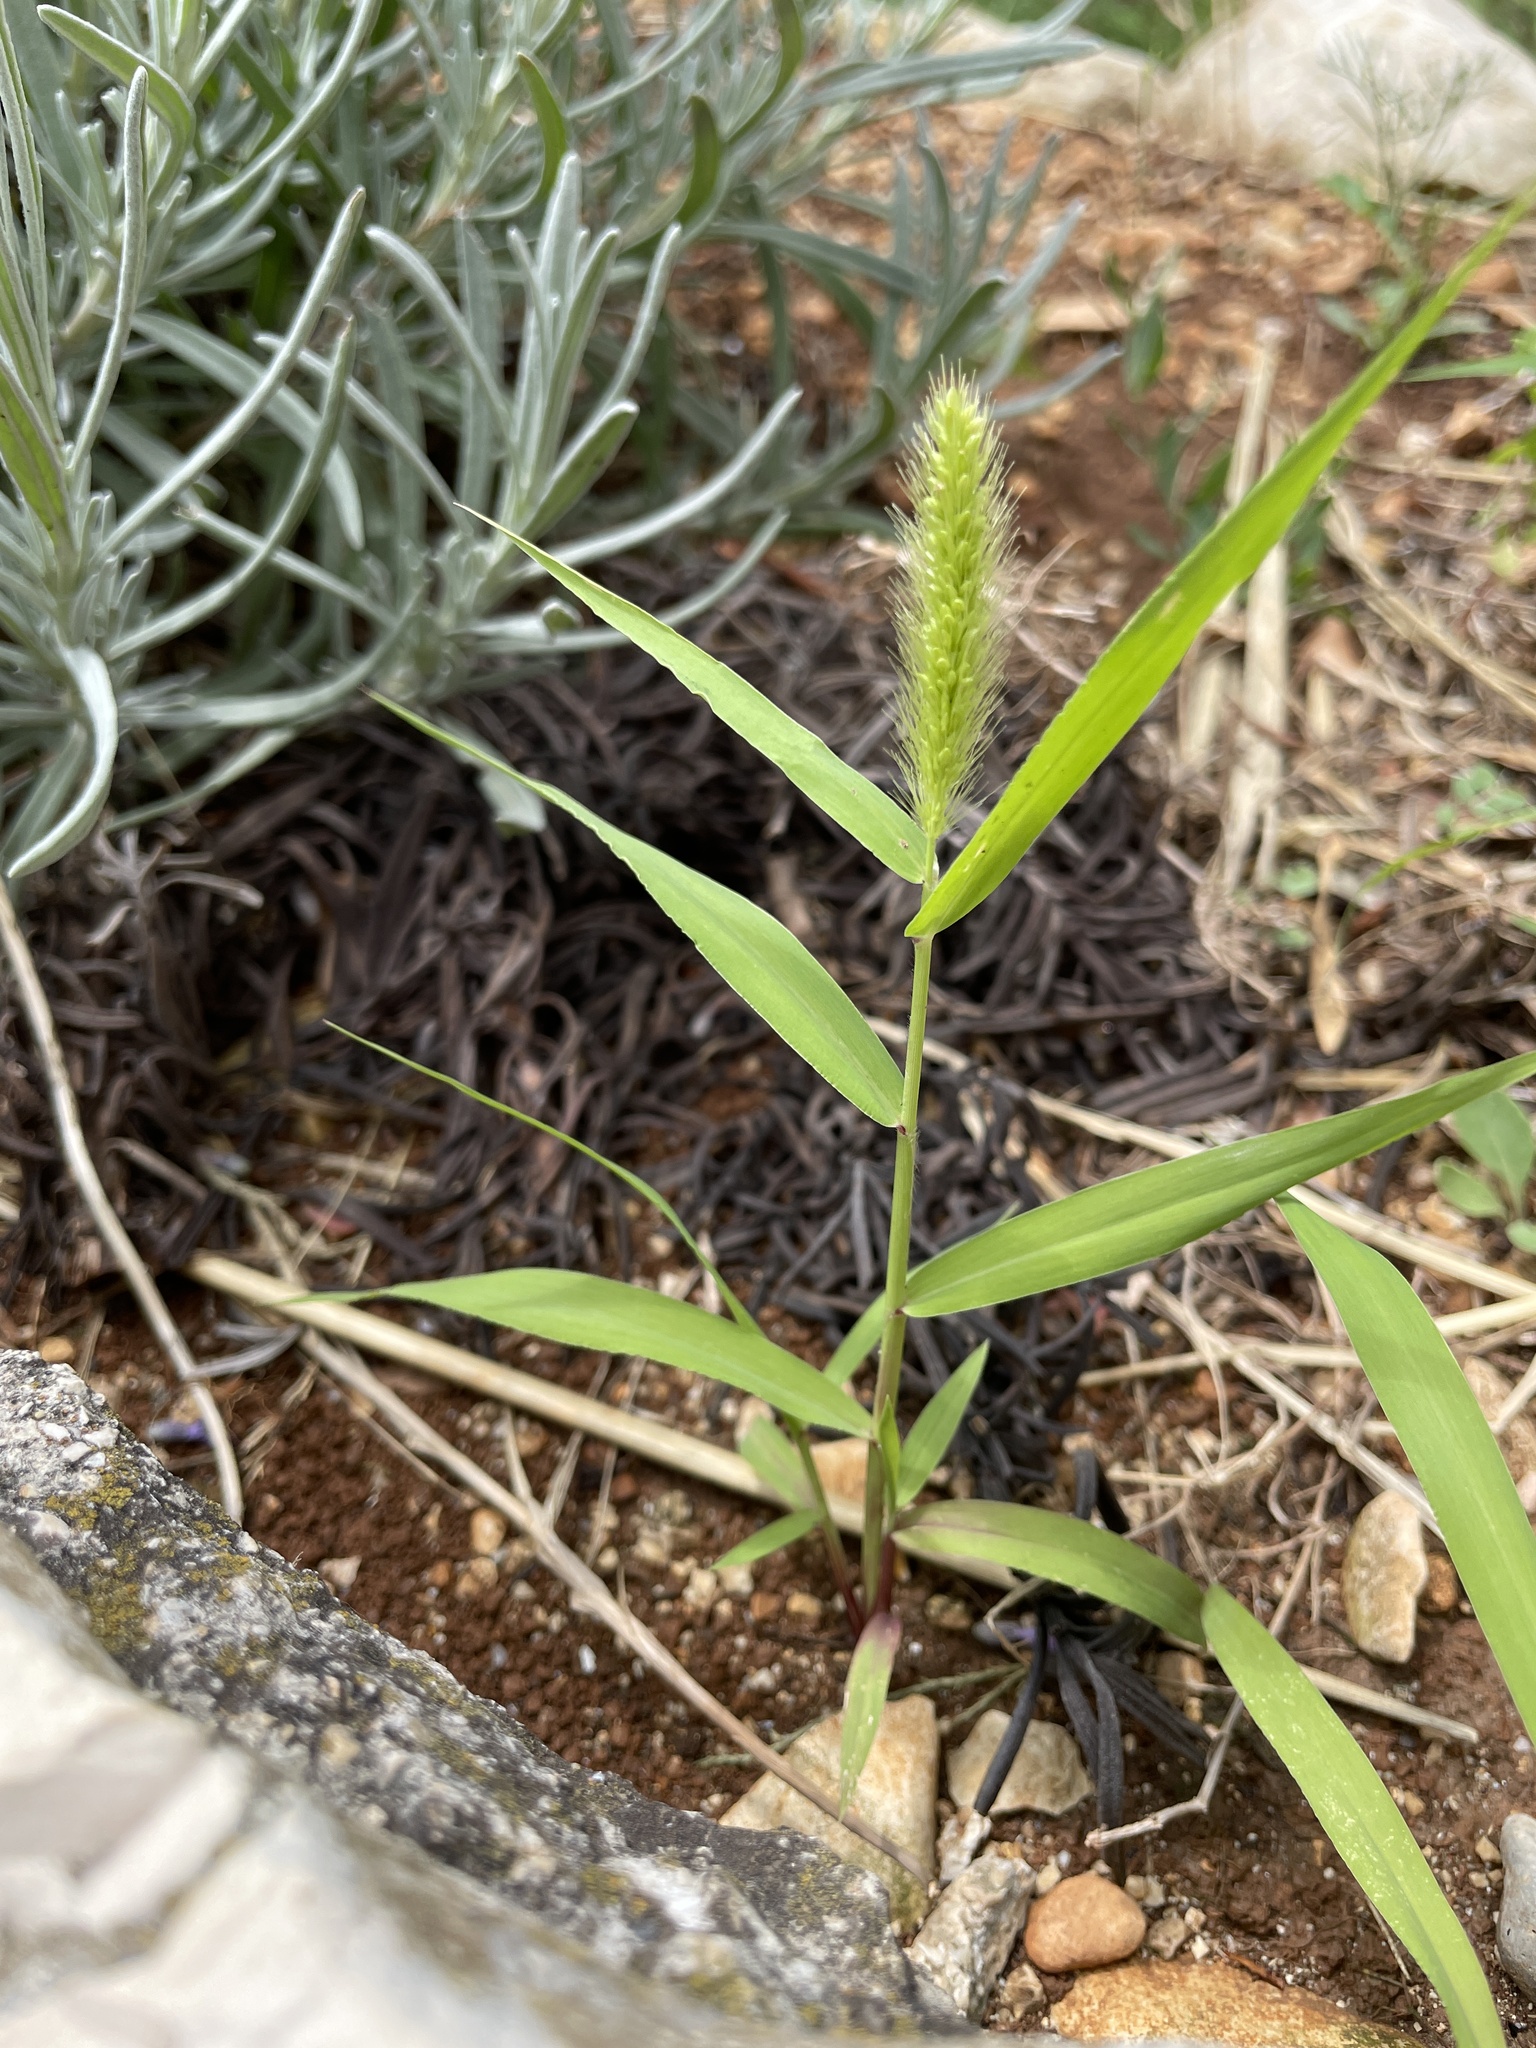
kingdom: Plantae
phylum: Tracheophyta
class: Liliopsida
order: Poales
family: Poaceae
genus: Setaria
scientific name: Setaria viridis
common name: Green bristlegrass
